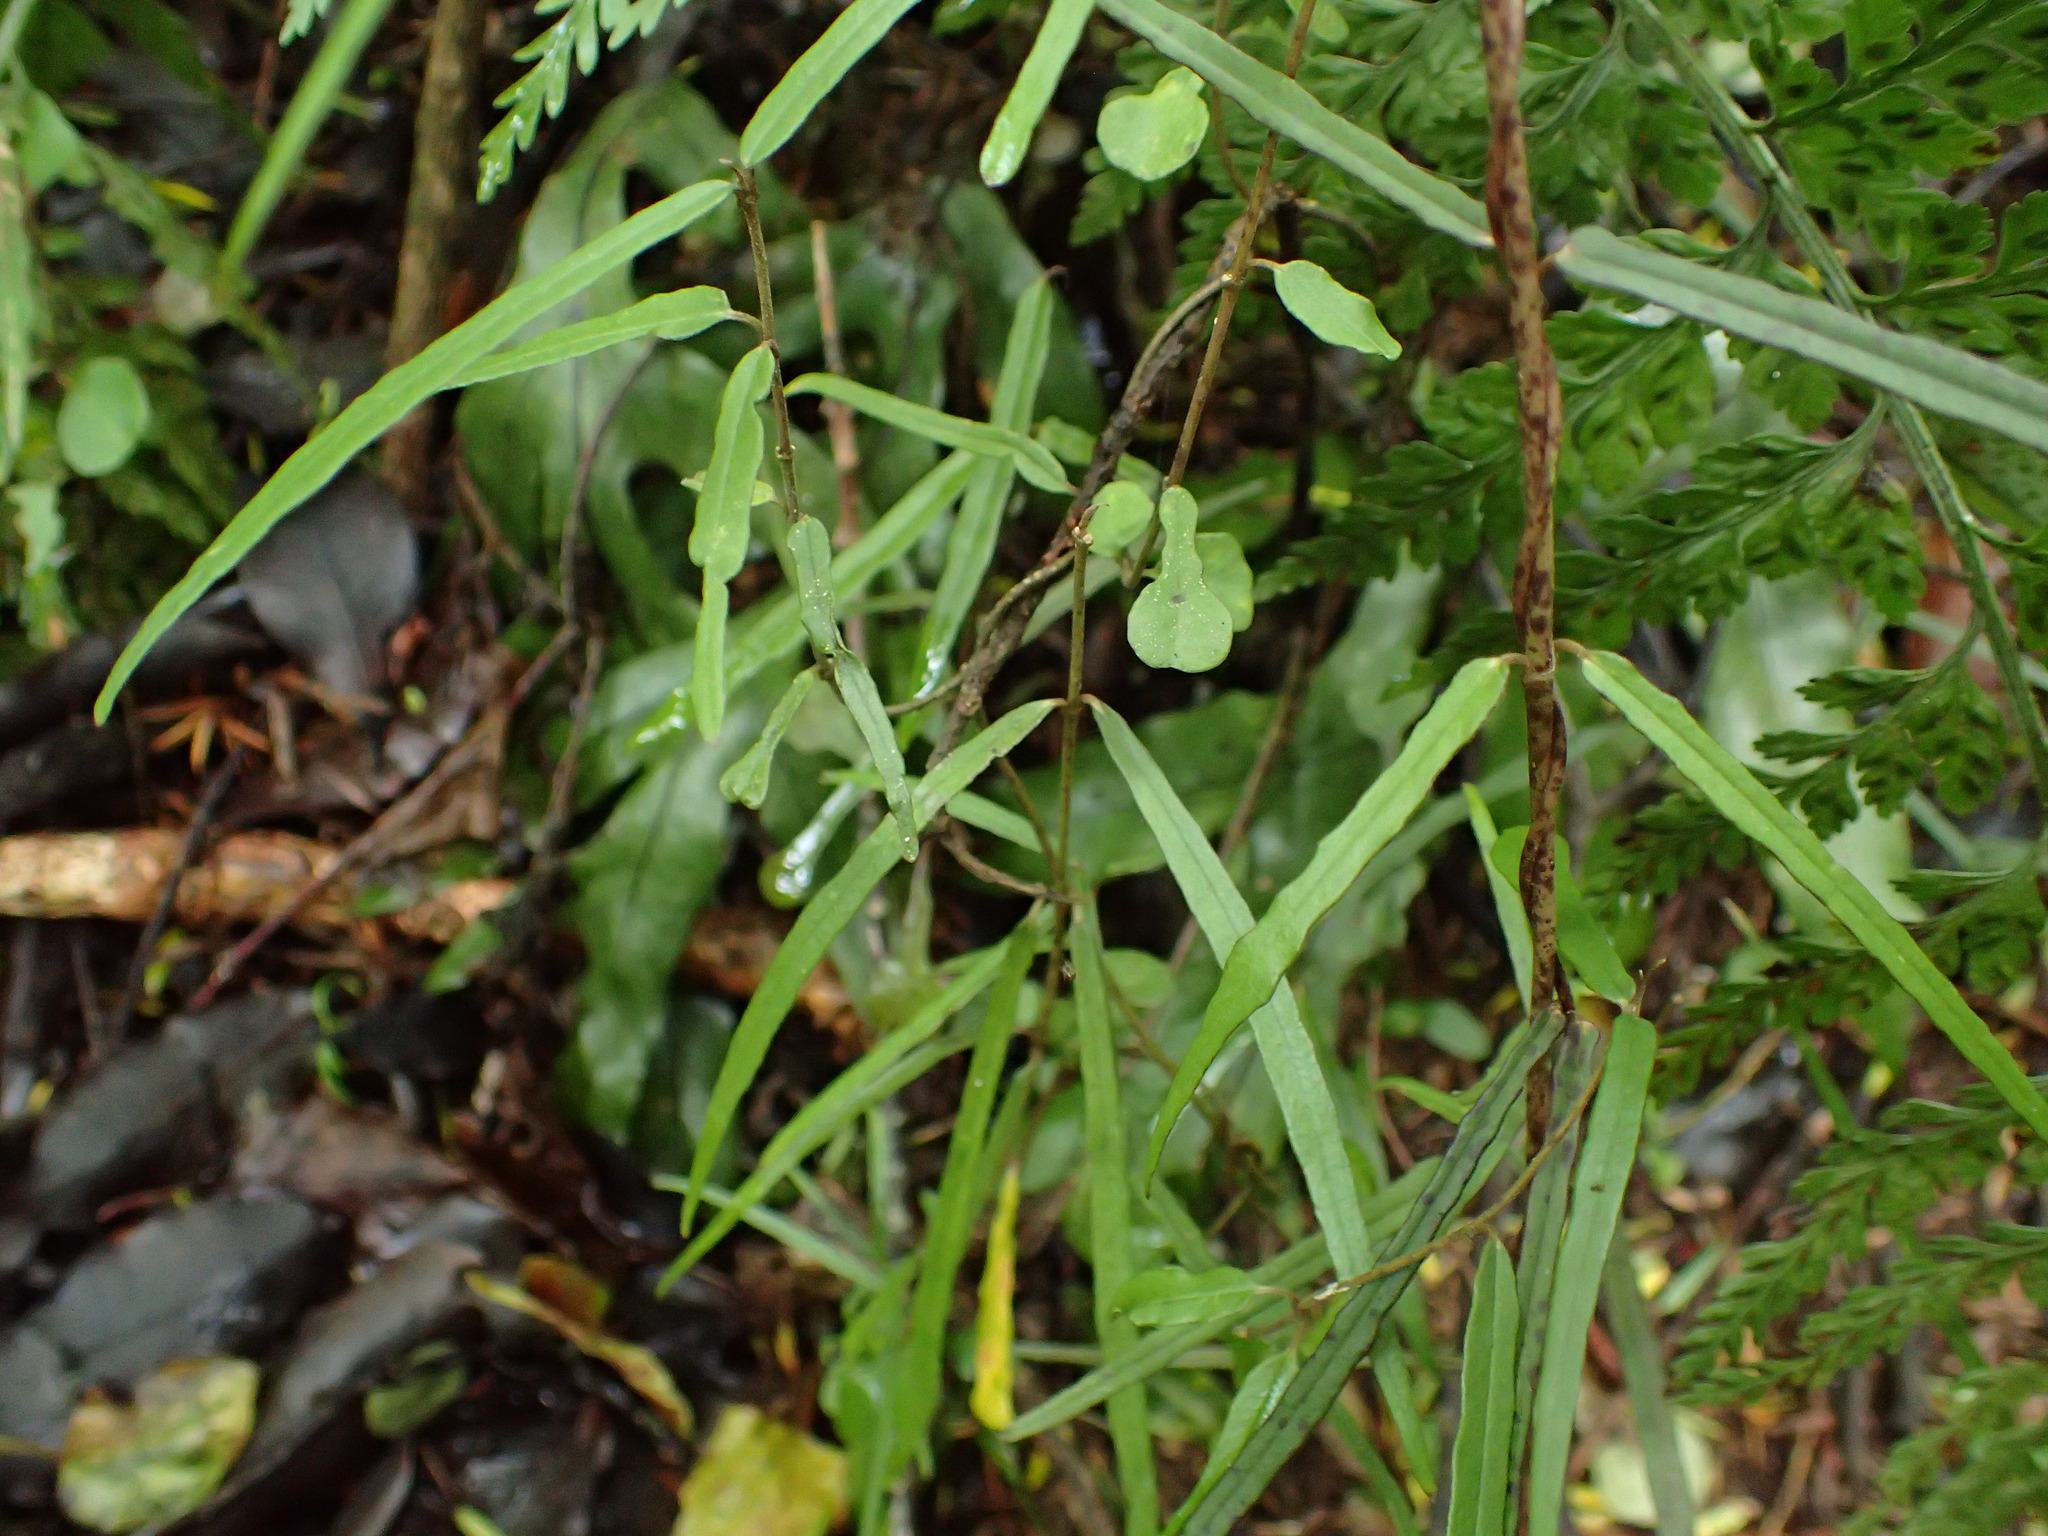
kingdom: Plantae
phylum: Tracheophyta
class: Magnoliopsida
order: Gentianales
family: Apocynaceae
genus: Parsonsia
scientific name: Parsonsia heterophylla
